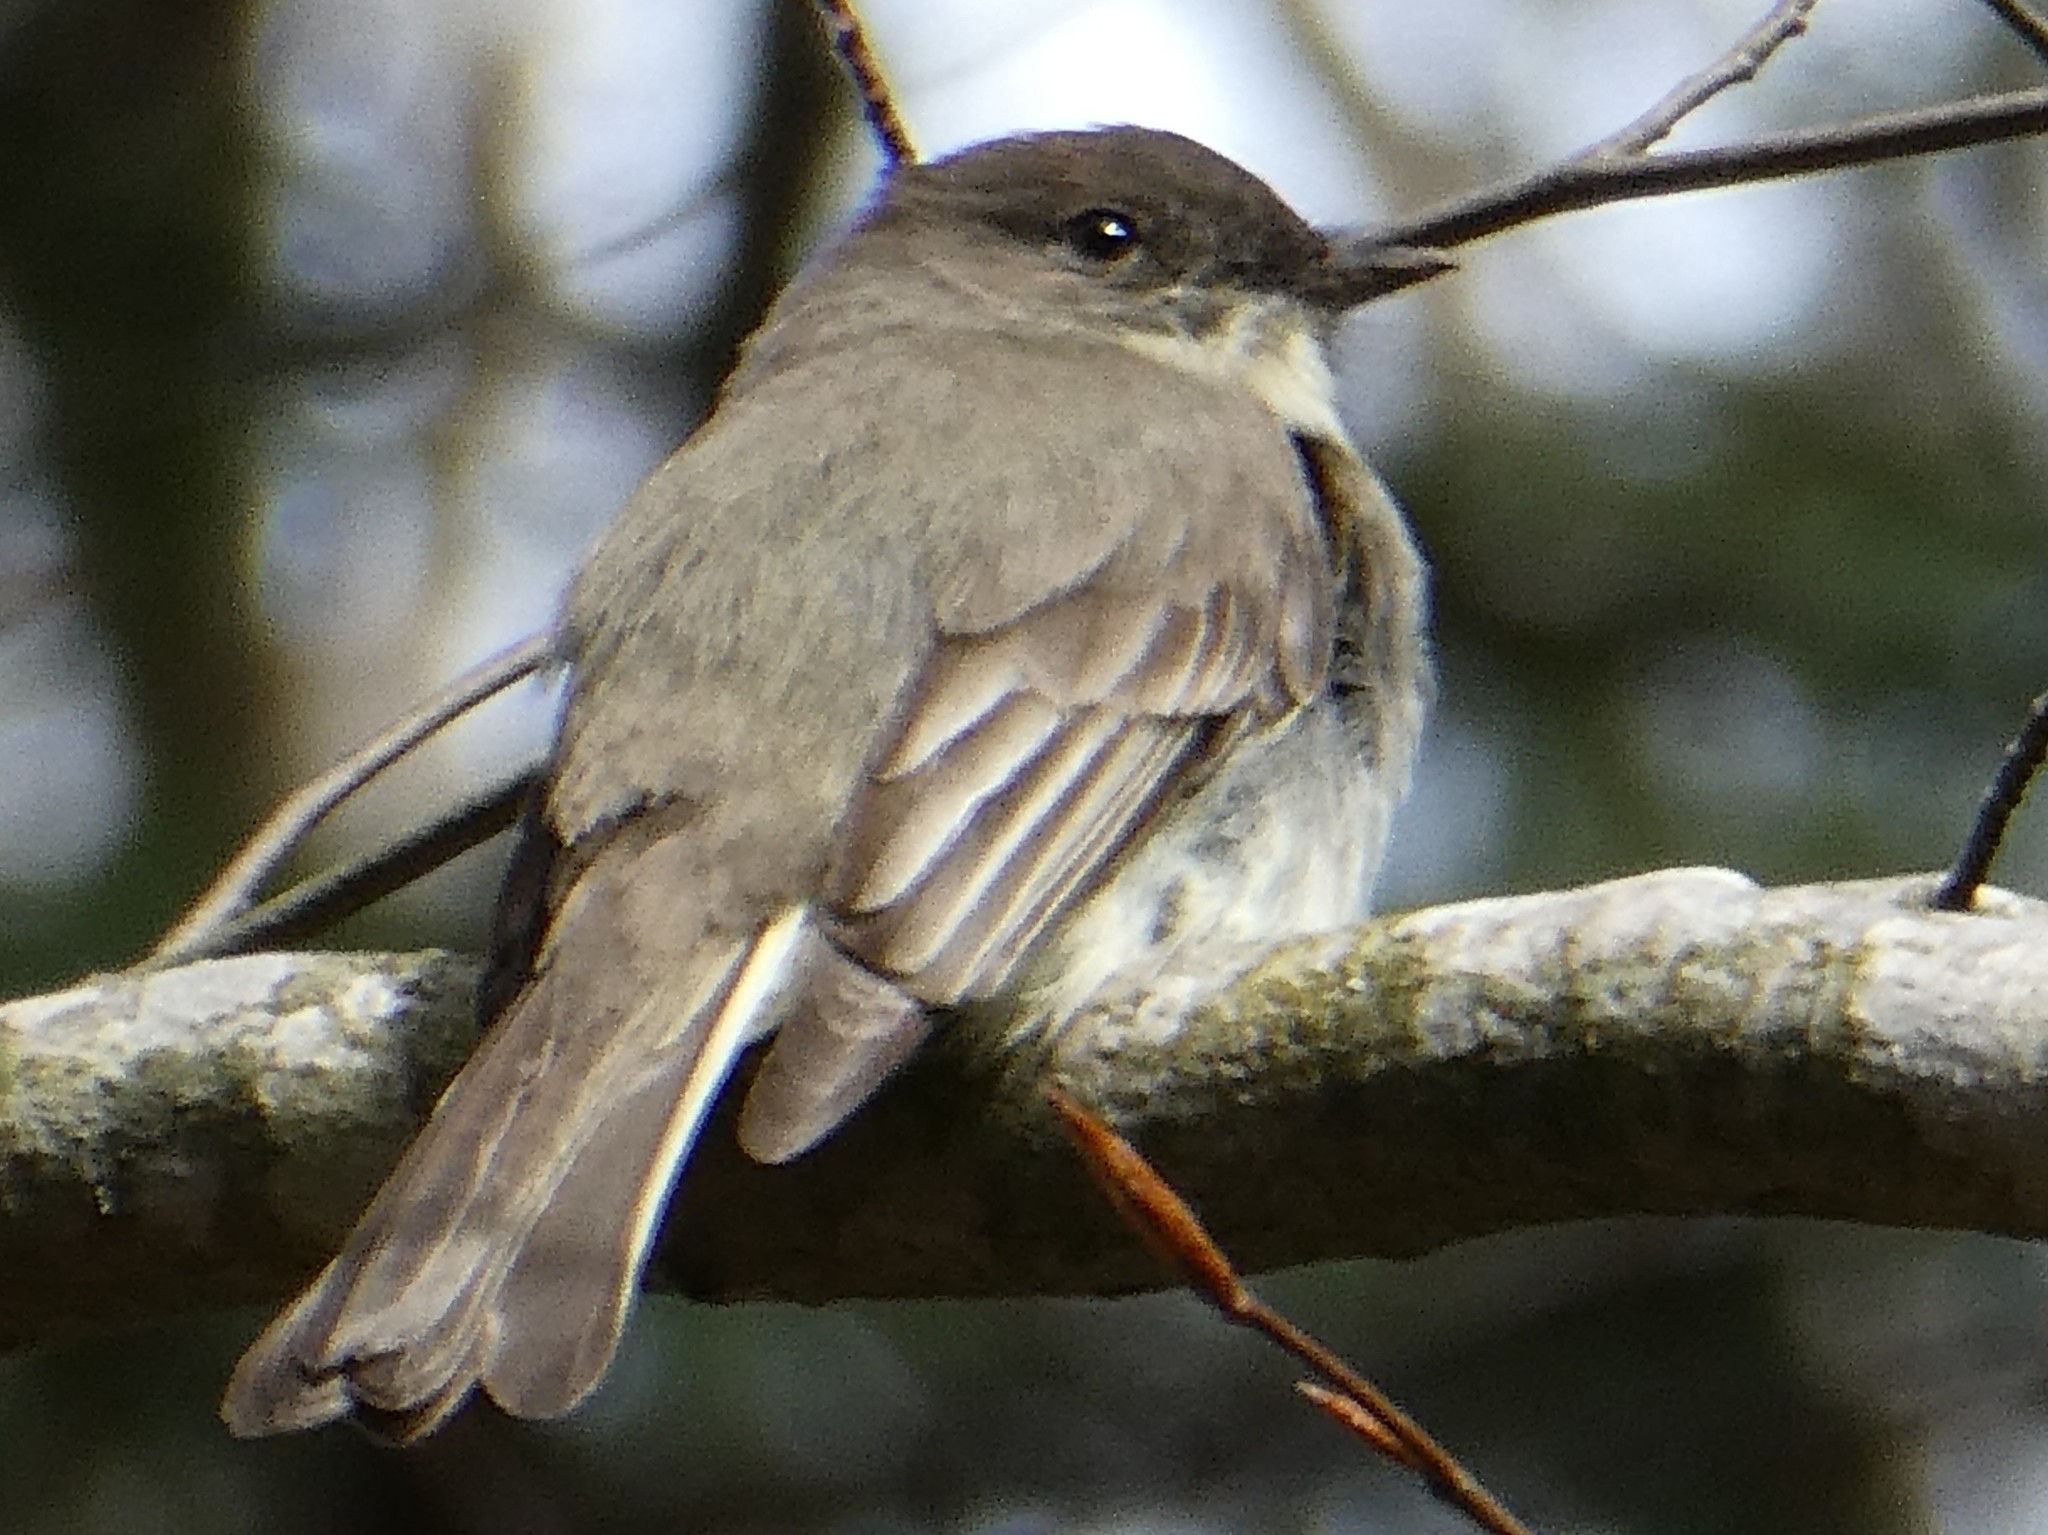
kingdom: Animalia
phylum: Chordata
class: Aves
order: Passeriformes
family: Tyrannidae
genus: Sayornis
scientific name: Sayornis phoebe
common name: Eastern phoebe
